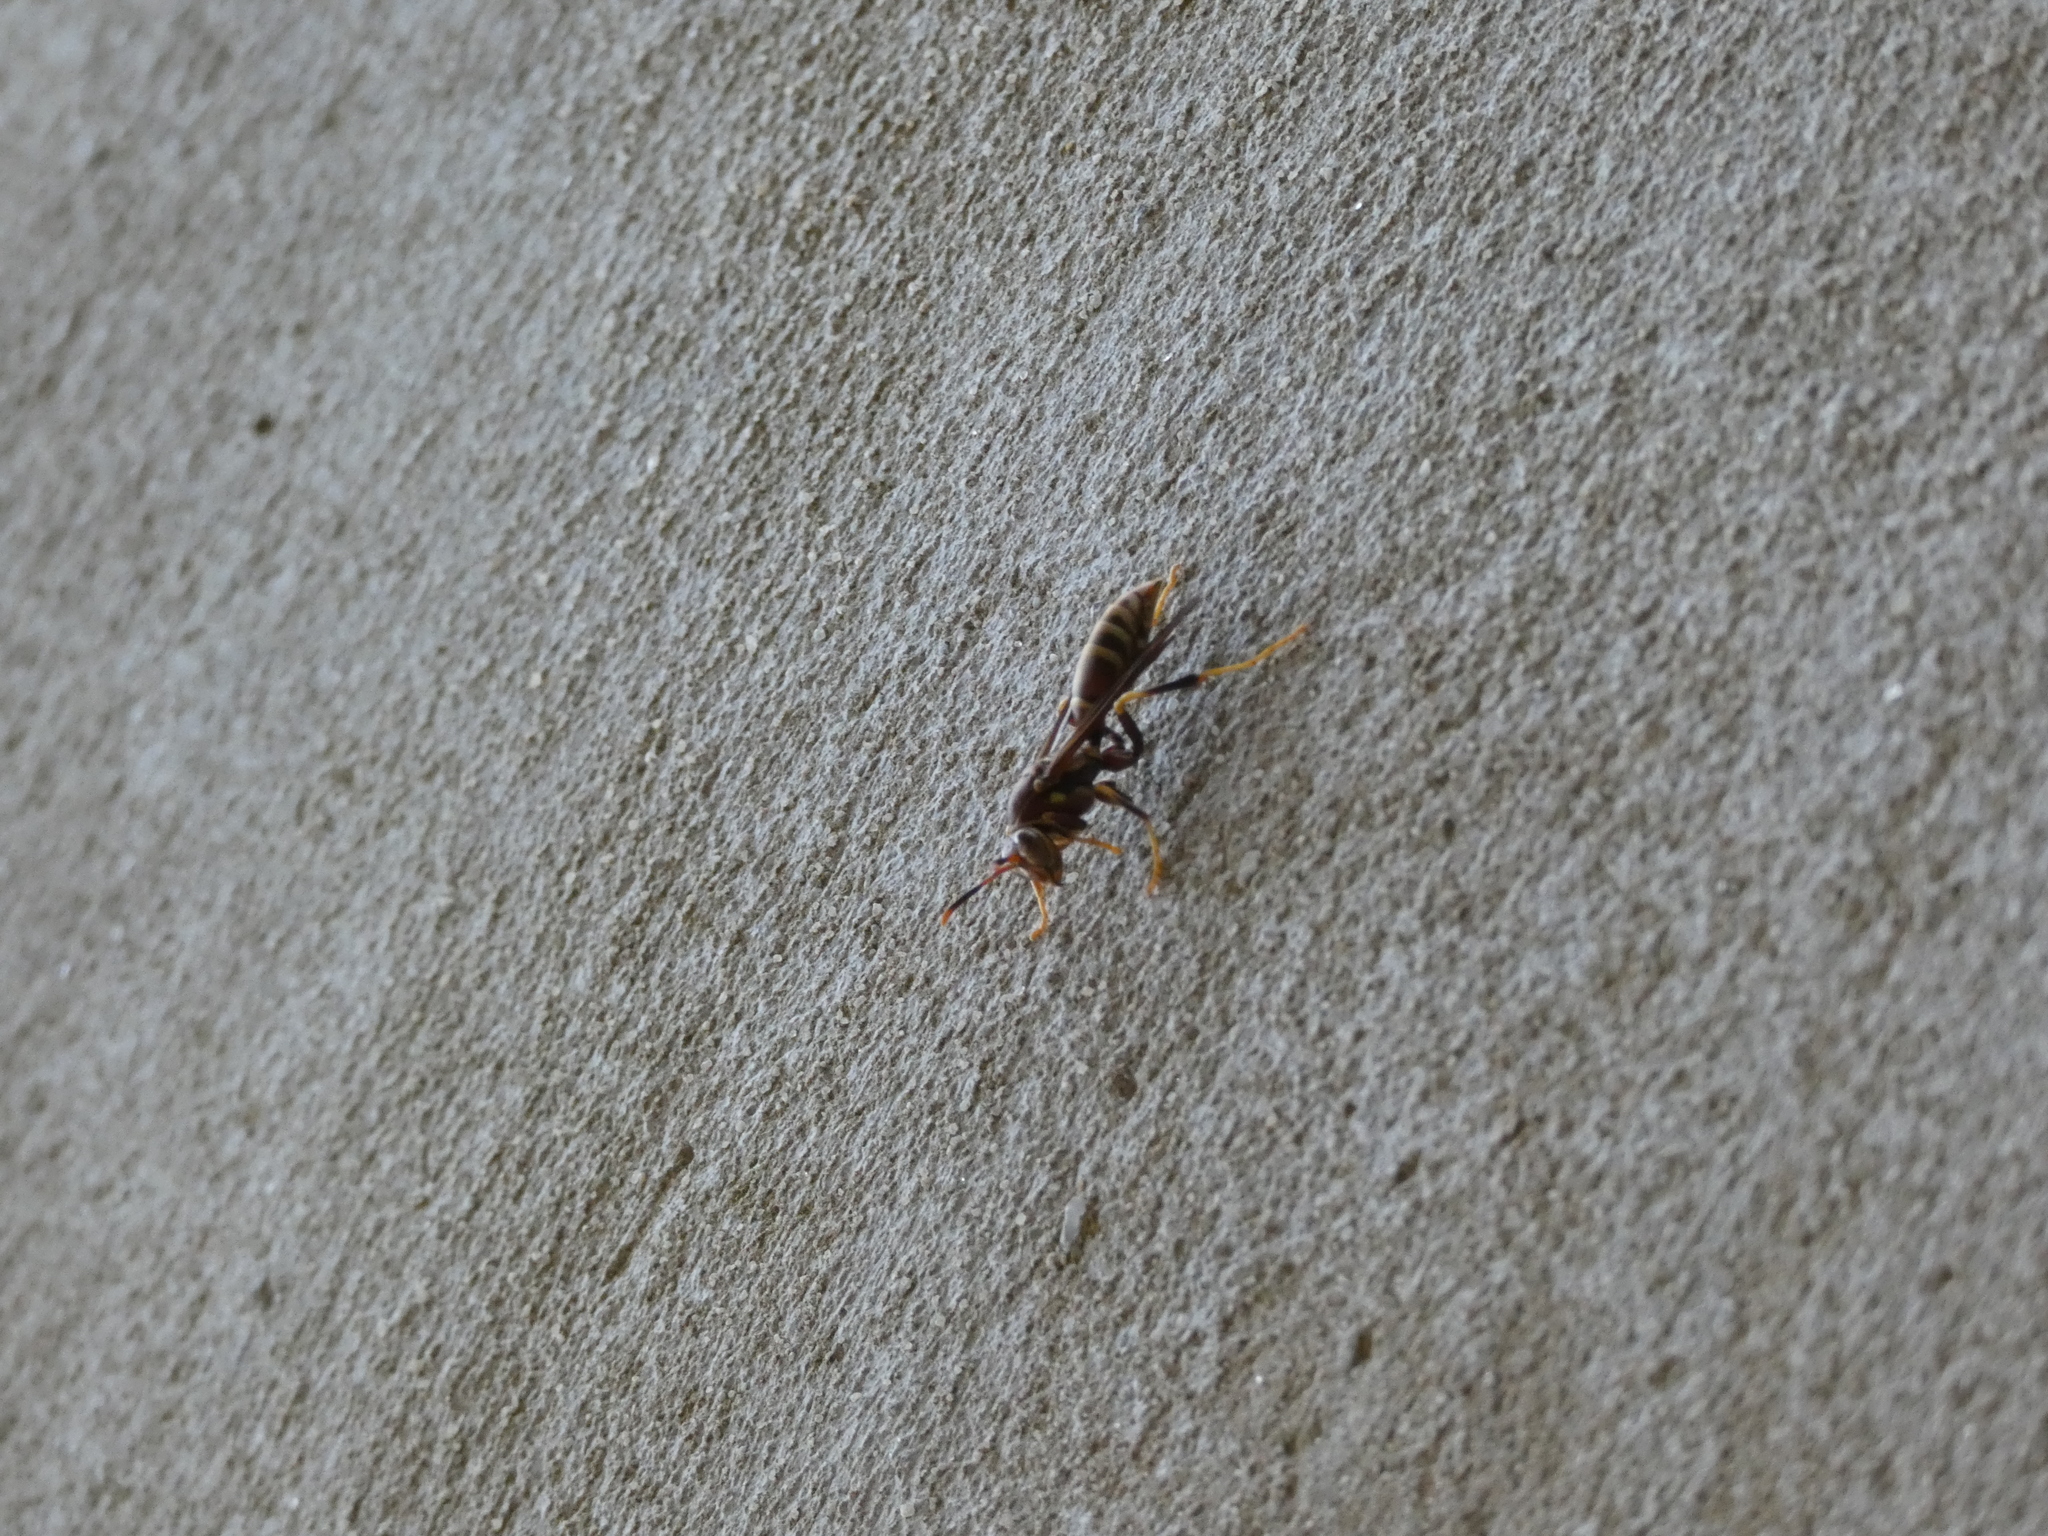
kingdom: Animalia
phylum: Arthropoda
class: Insecta
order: Hymenoptera
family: Eumenidae
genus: Polistes
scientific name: Polistes exclamans
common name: Paper wasp
